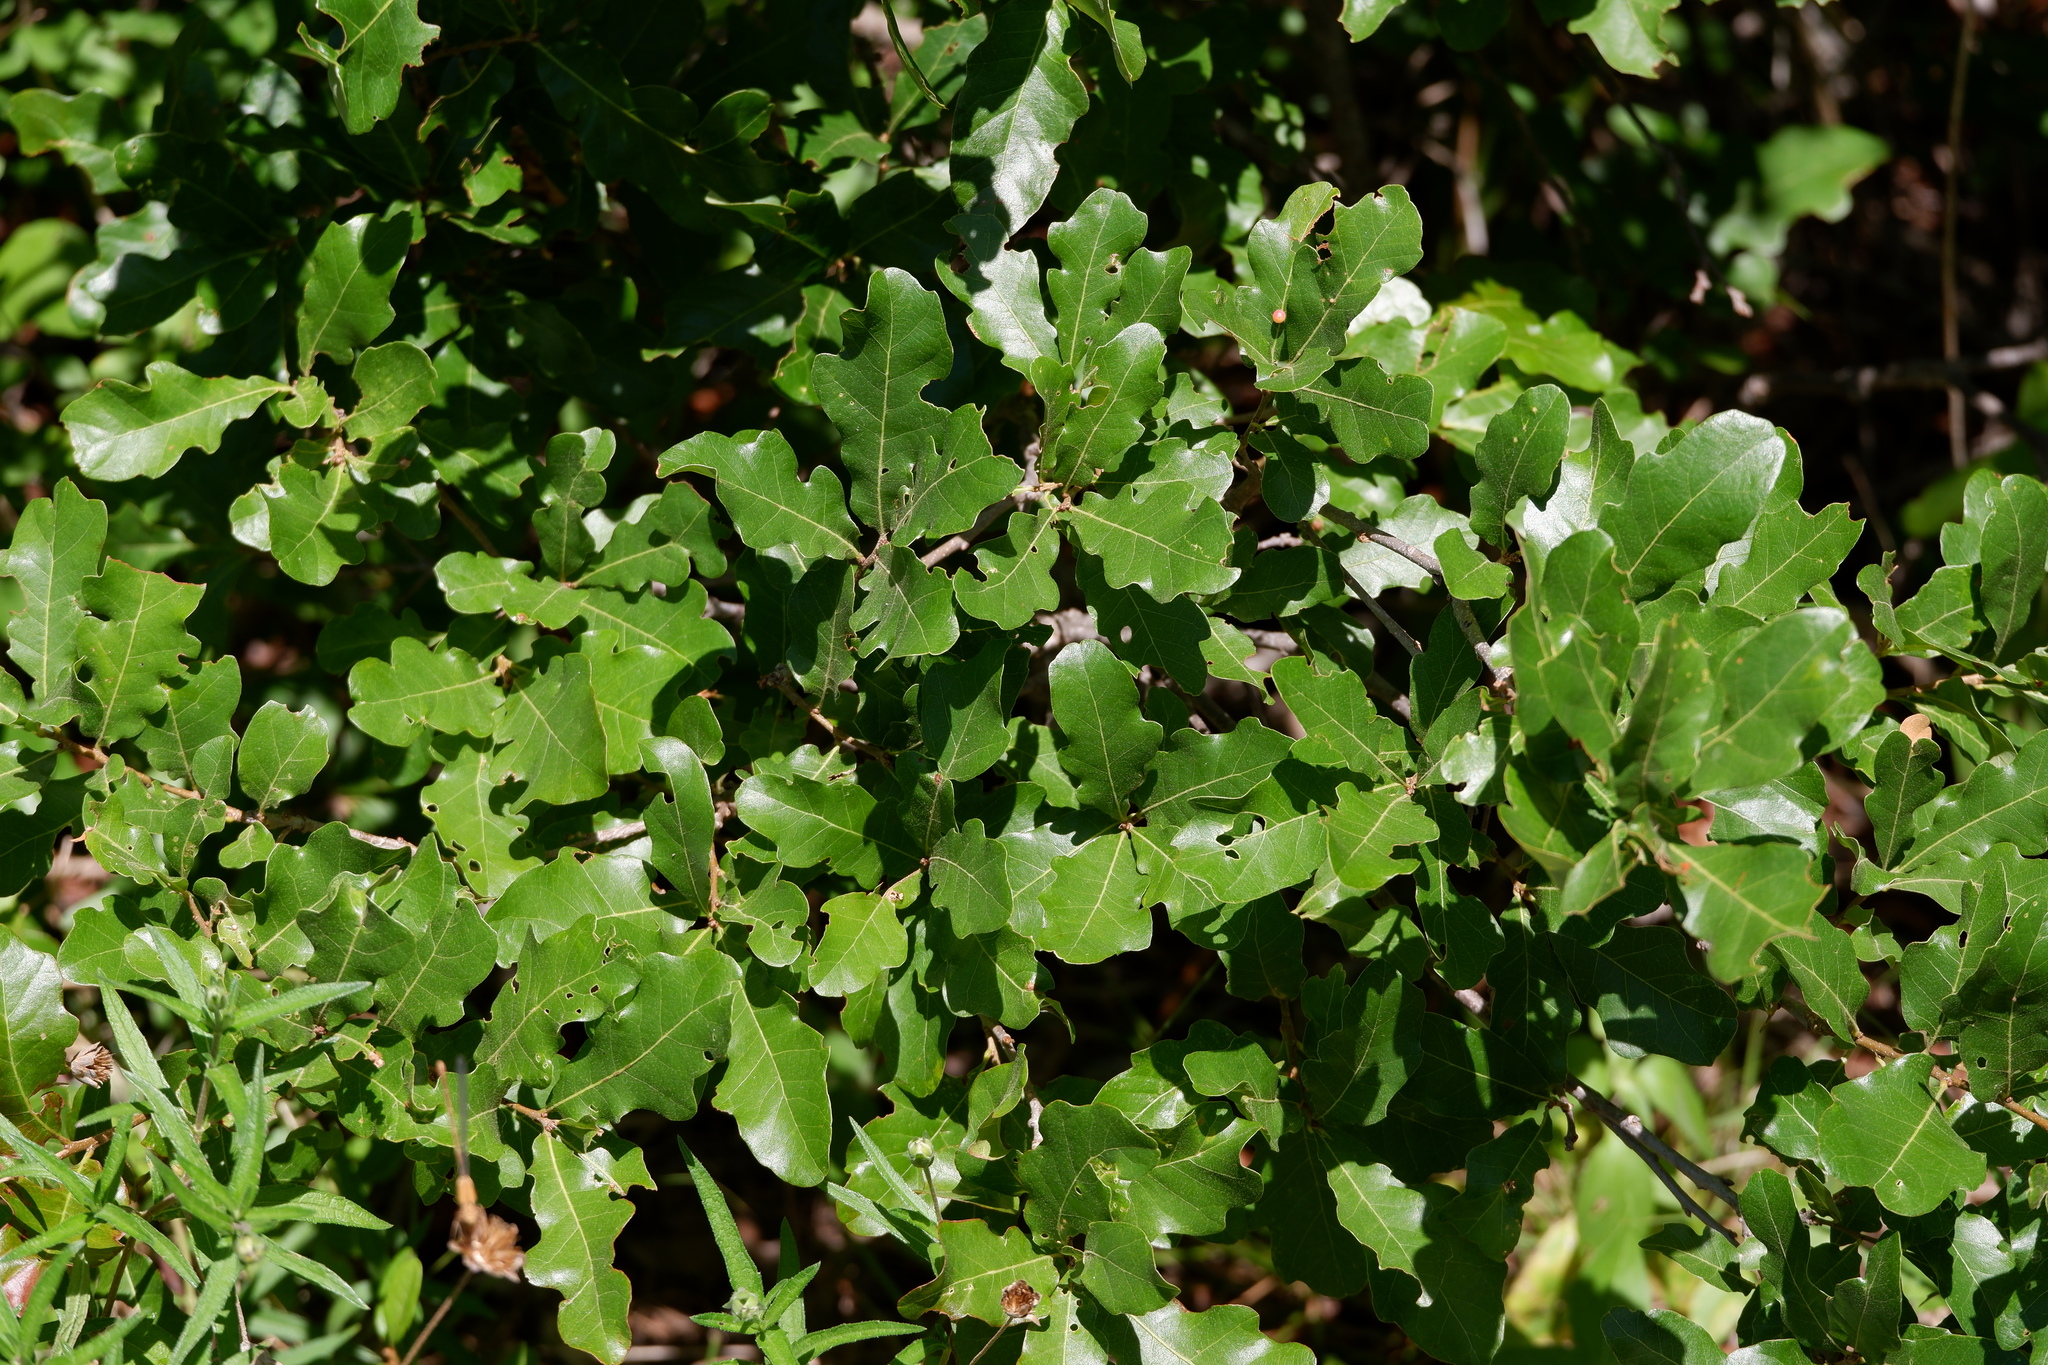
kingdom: Plantae
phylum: Tracheophyta
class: Magnoliopsida
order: Fagales
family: Fagaceae
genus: Quercus
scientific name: Quercus sinuata
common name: Durand oak
